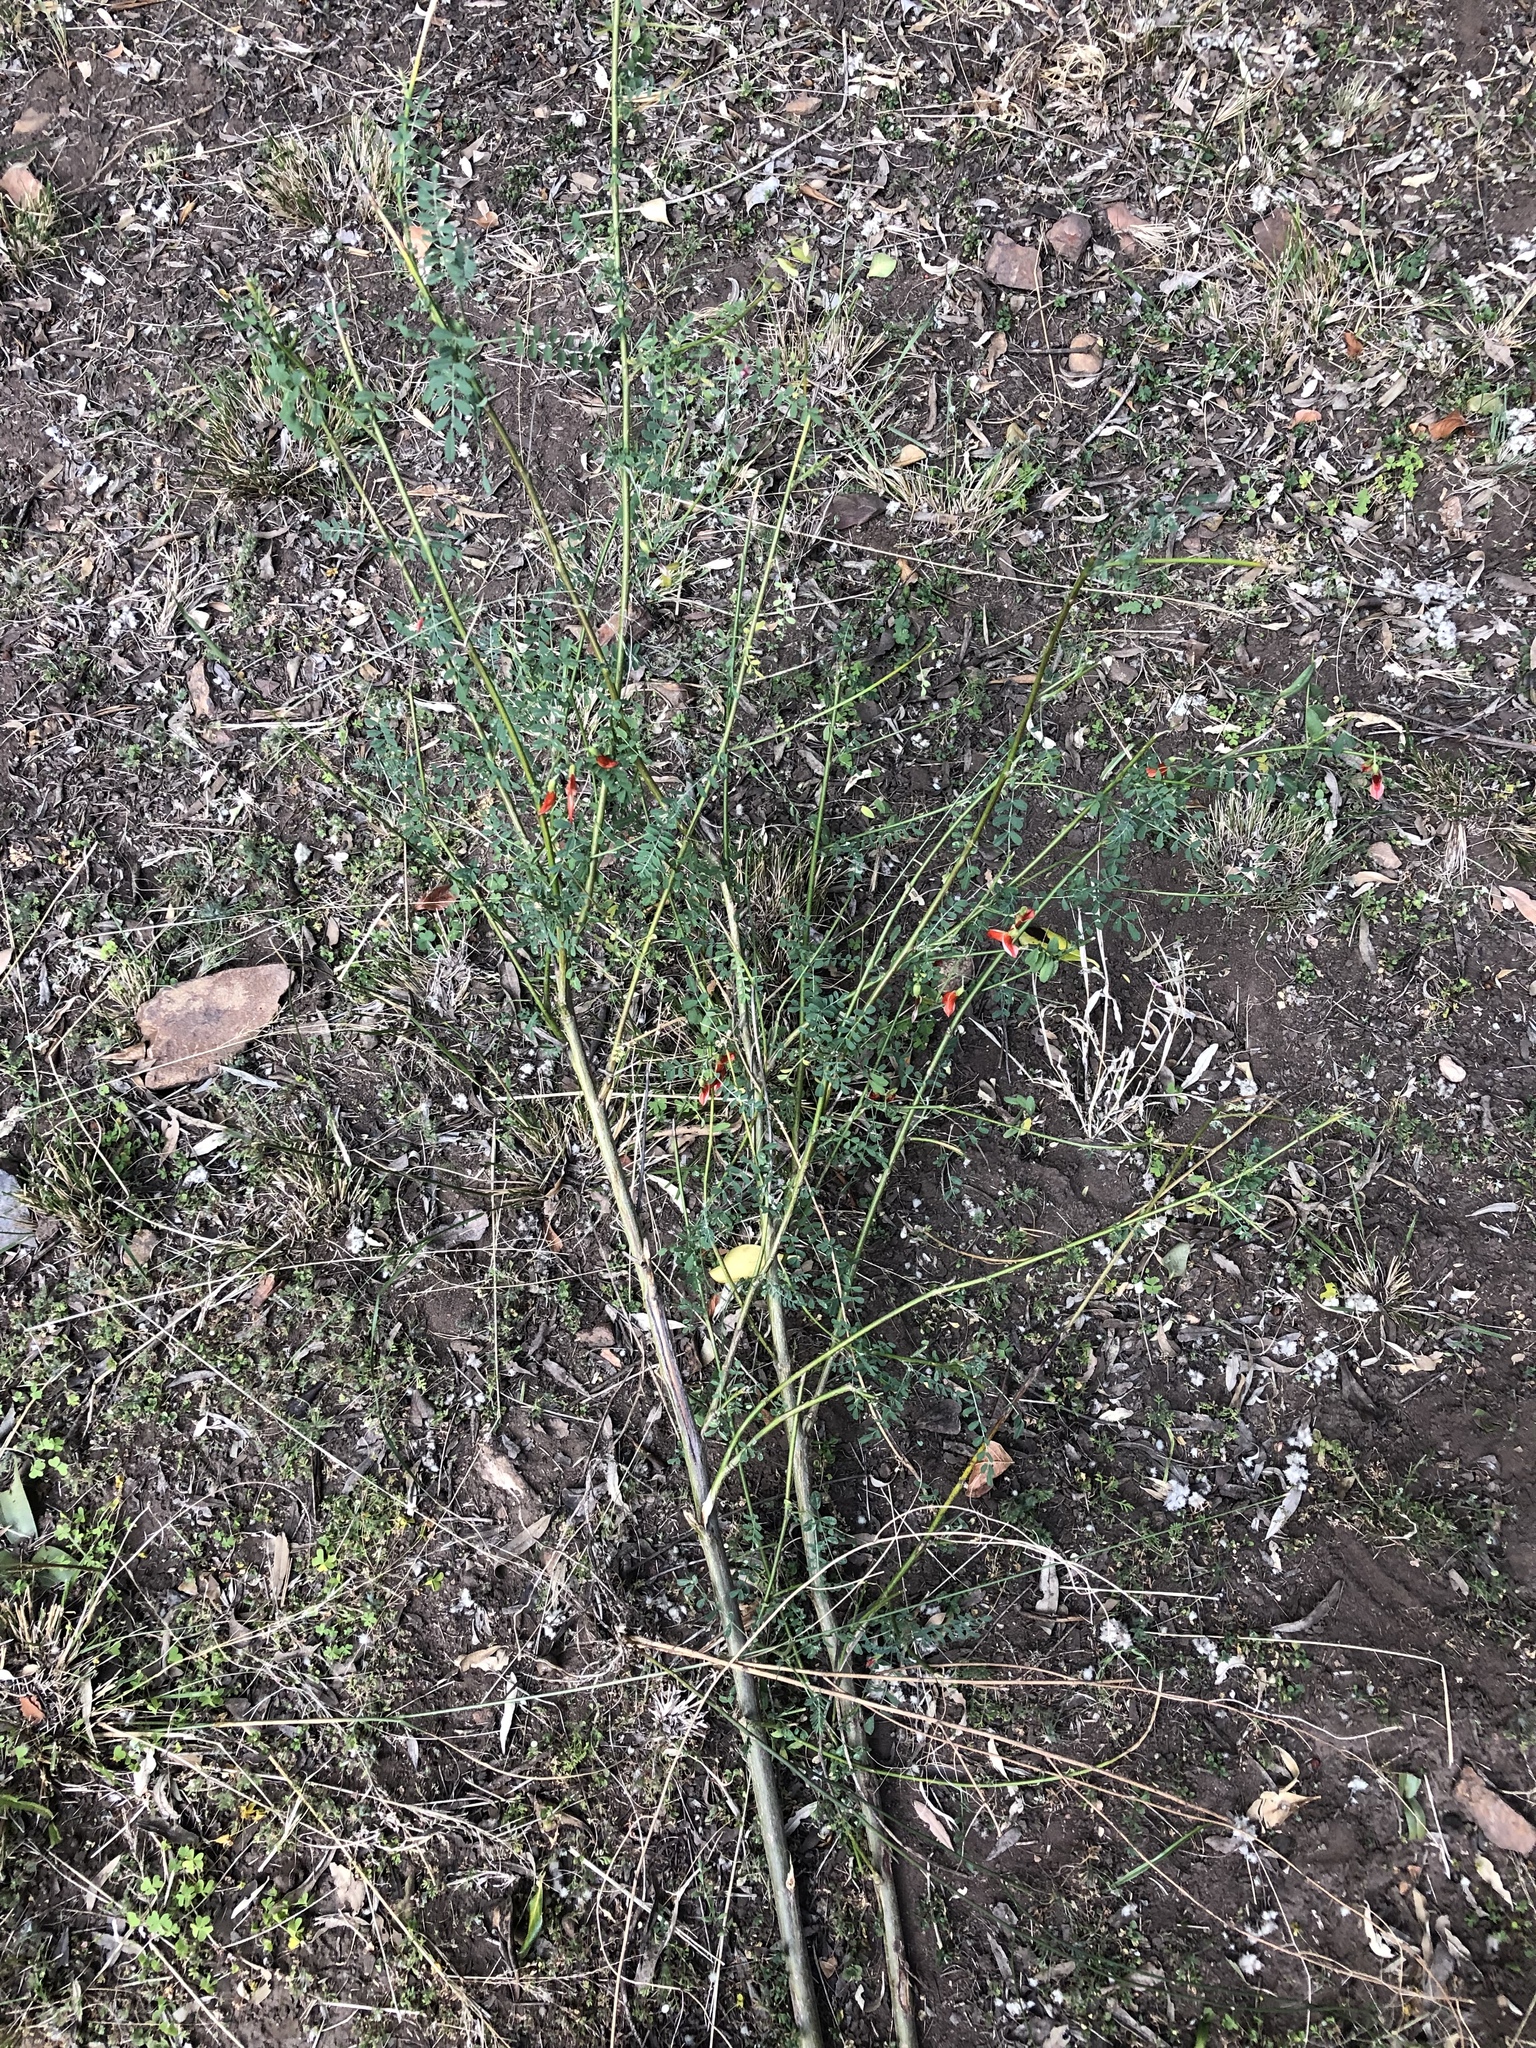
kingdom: Plantae
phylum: Tracheophyta
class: Magnoliopsida
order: Fabales
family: Fabaceae
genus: Lessertia
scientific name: Lessertia frutescens
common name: Balloon-pea
